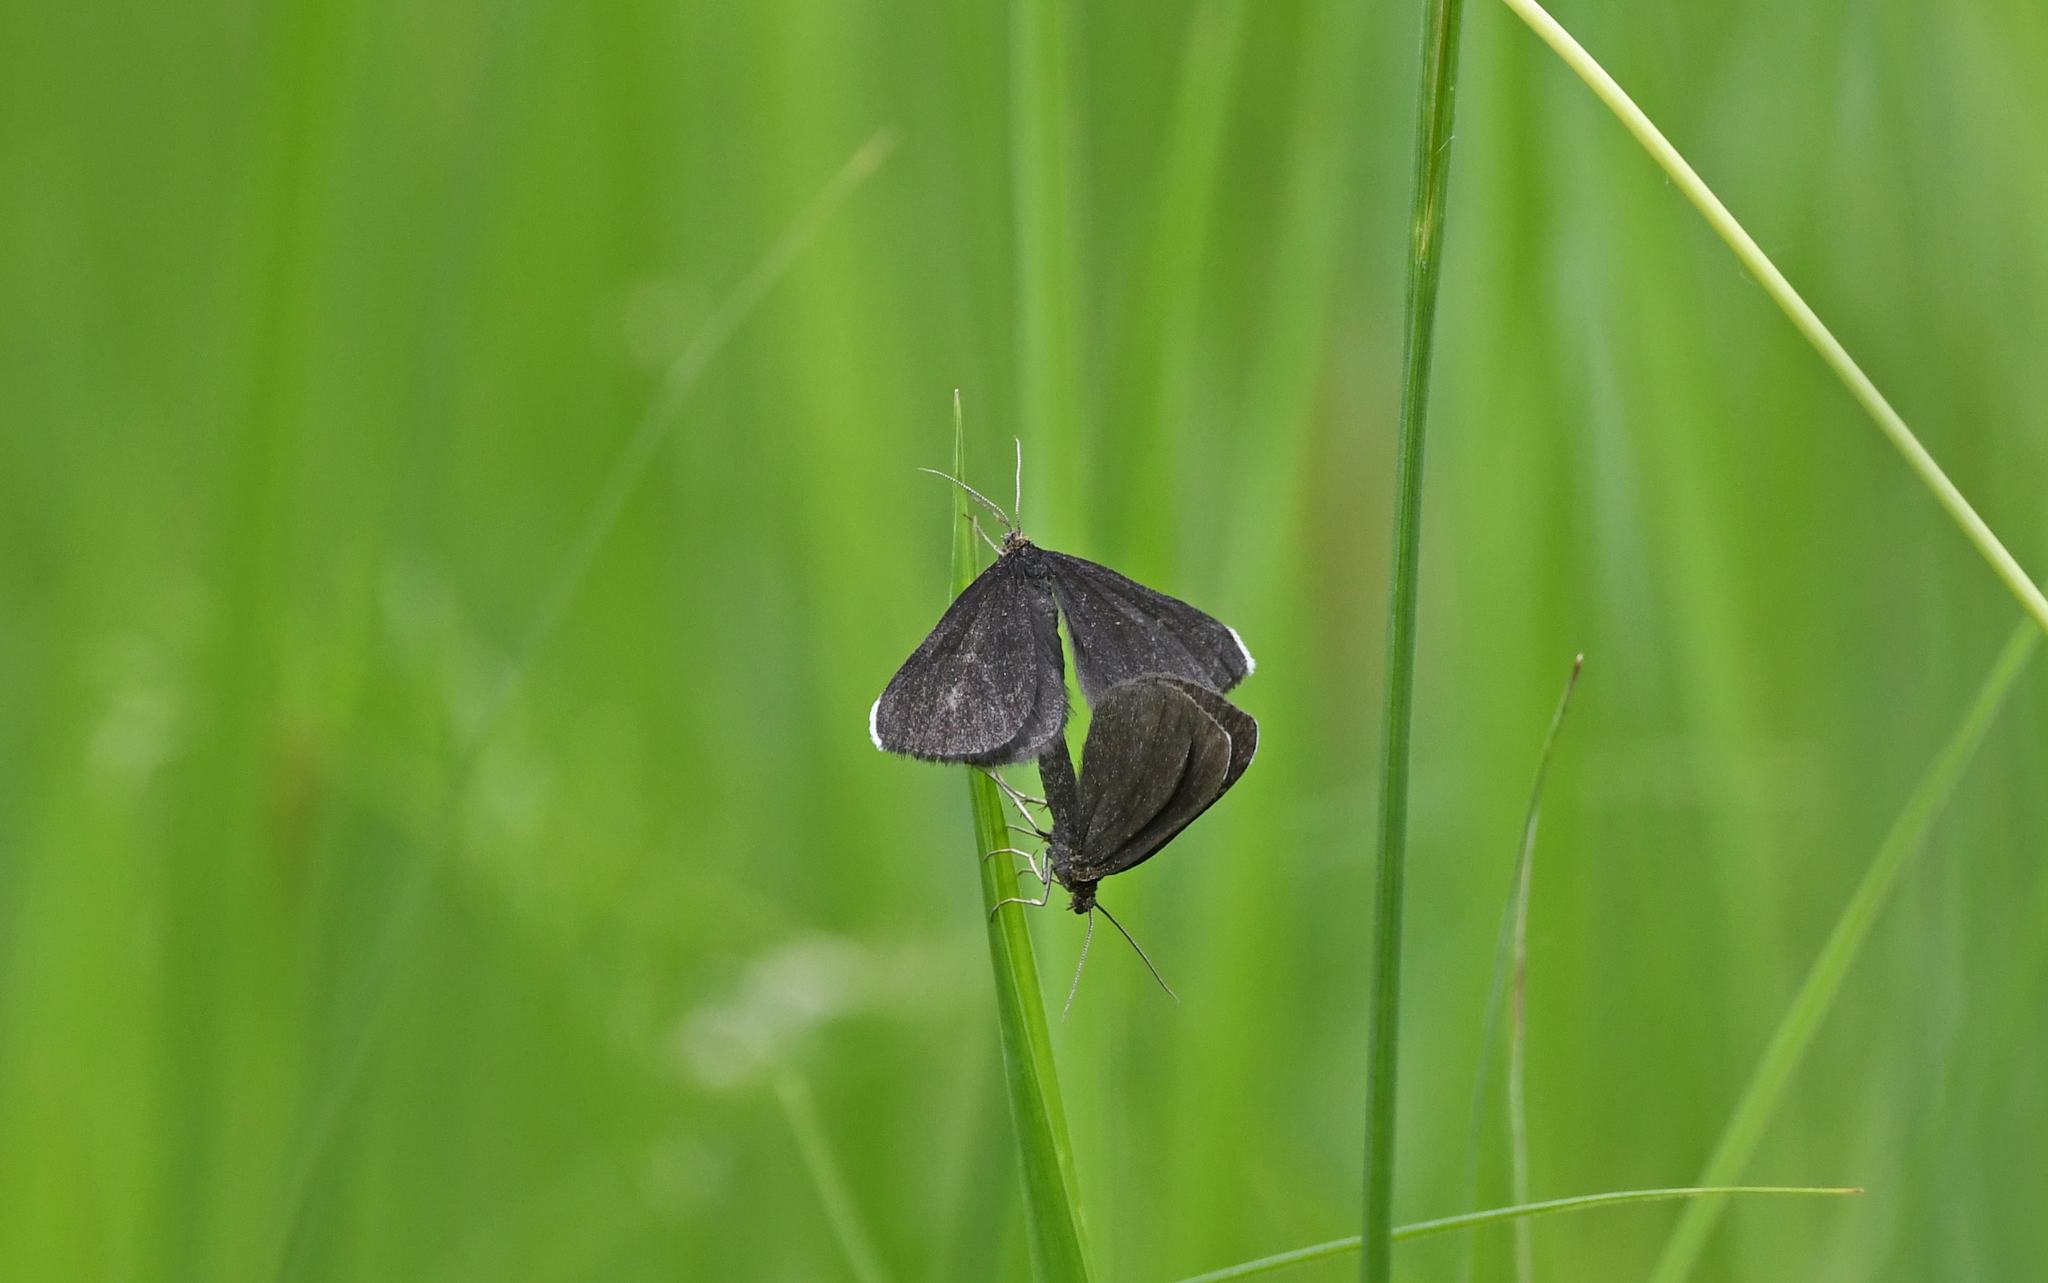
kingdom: Animalia
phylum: Arthropoda
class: Insecta
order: Lepidoptera
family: Geometridae
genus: Odezia
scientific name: Odezia atrata
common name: Chimney sweeper
